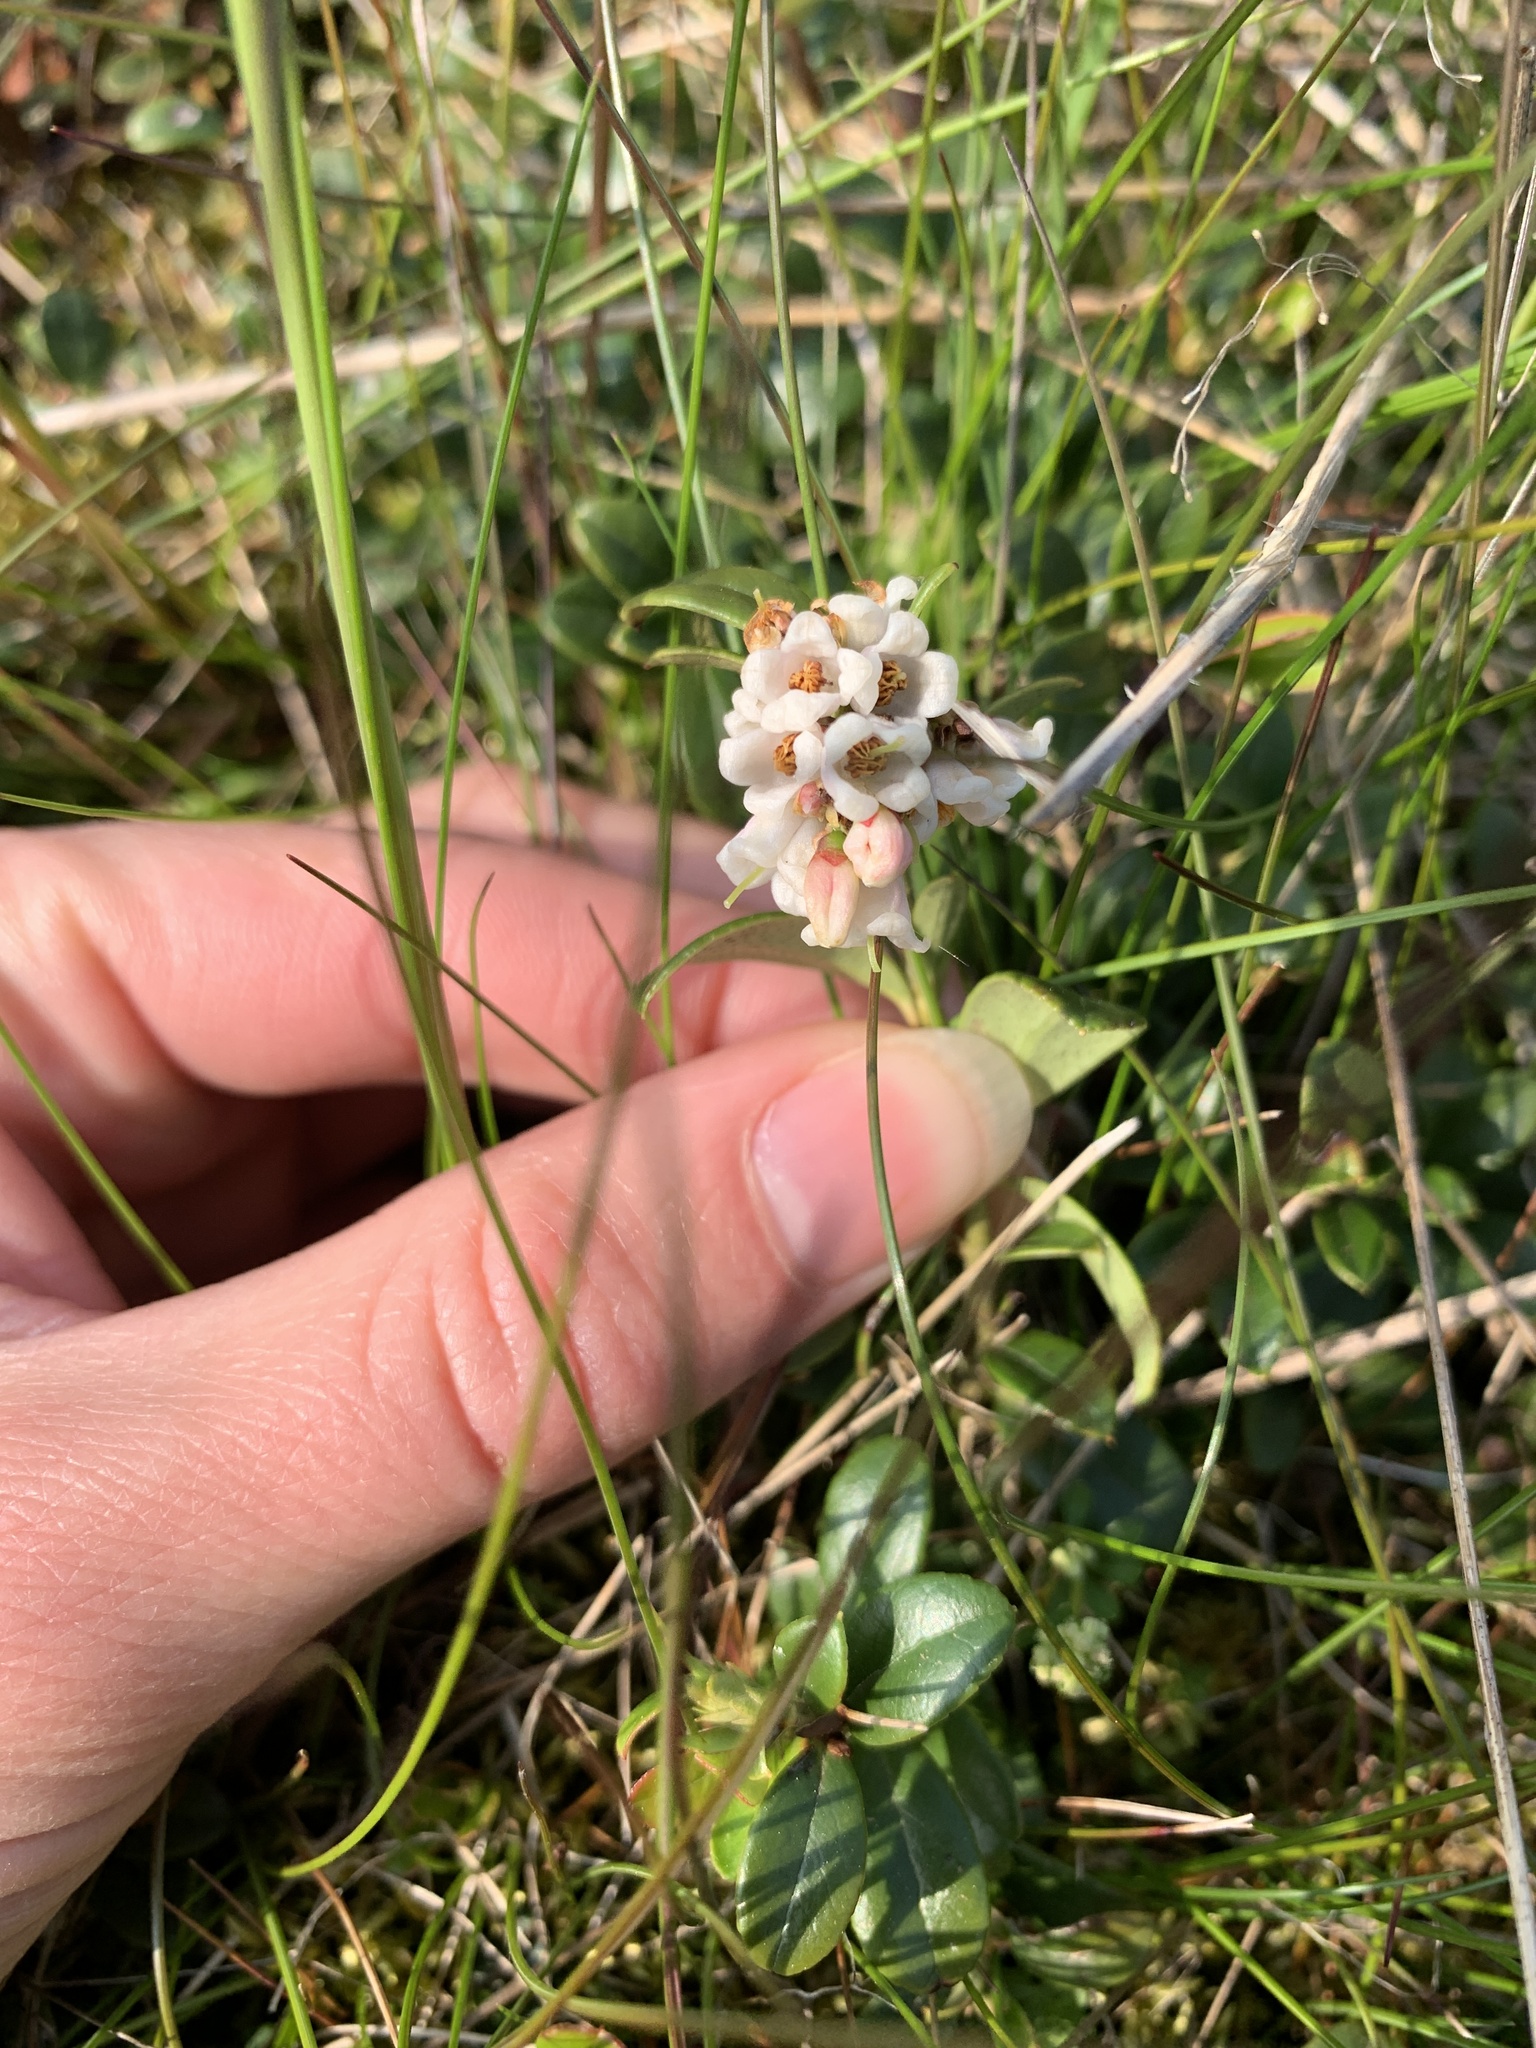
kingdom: Plantae
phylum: Tracheophyta
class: Magnoliopsida
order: Ericales
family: Ericaceae
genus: Vaccinium
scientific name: Vaccinium vitis-idaea
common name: Cowberry
